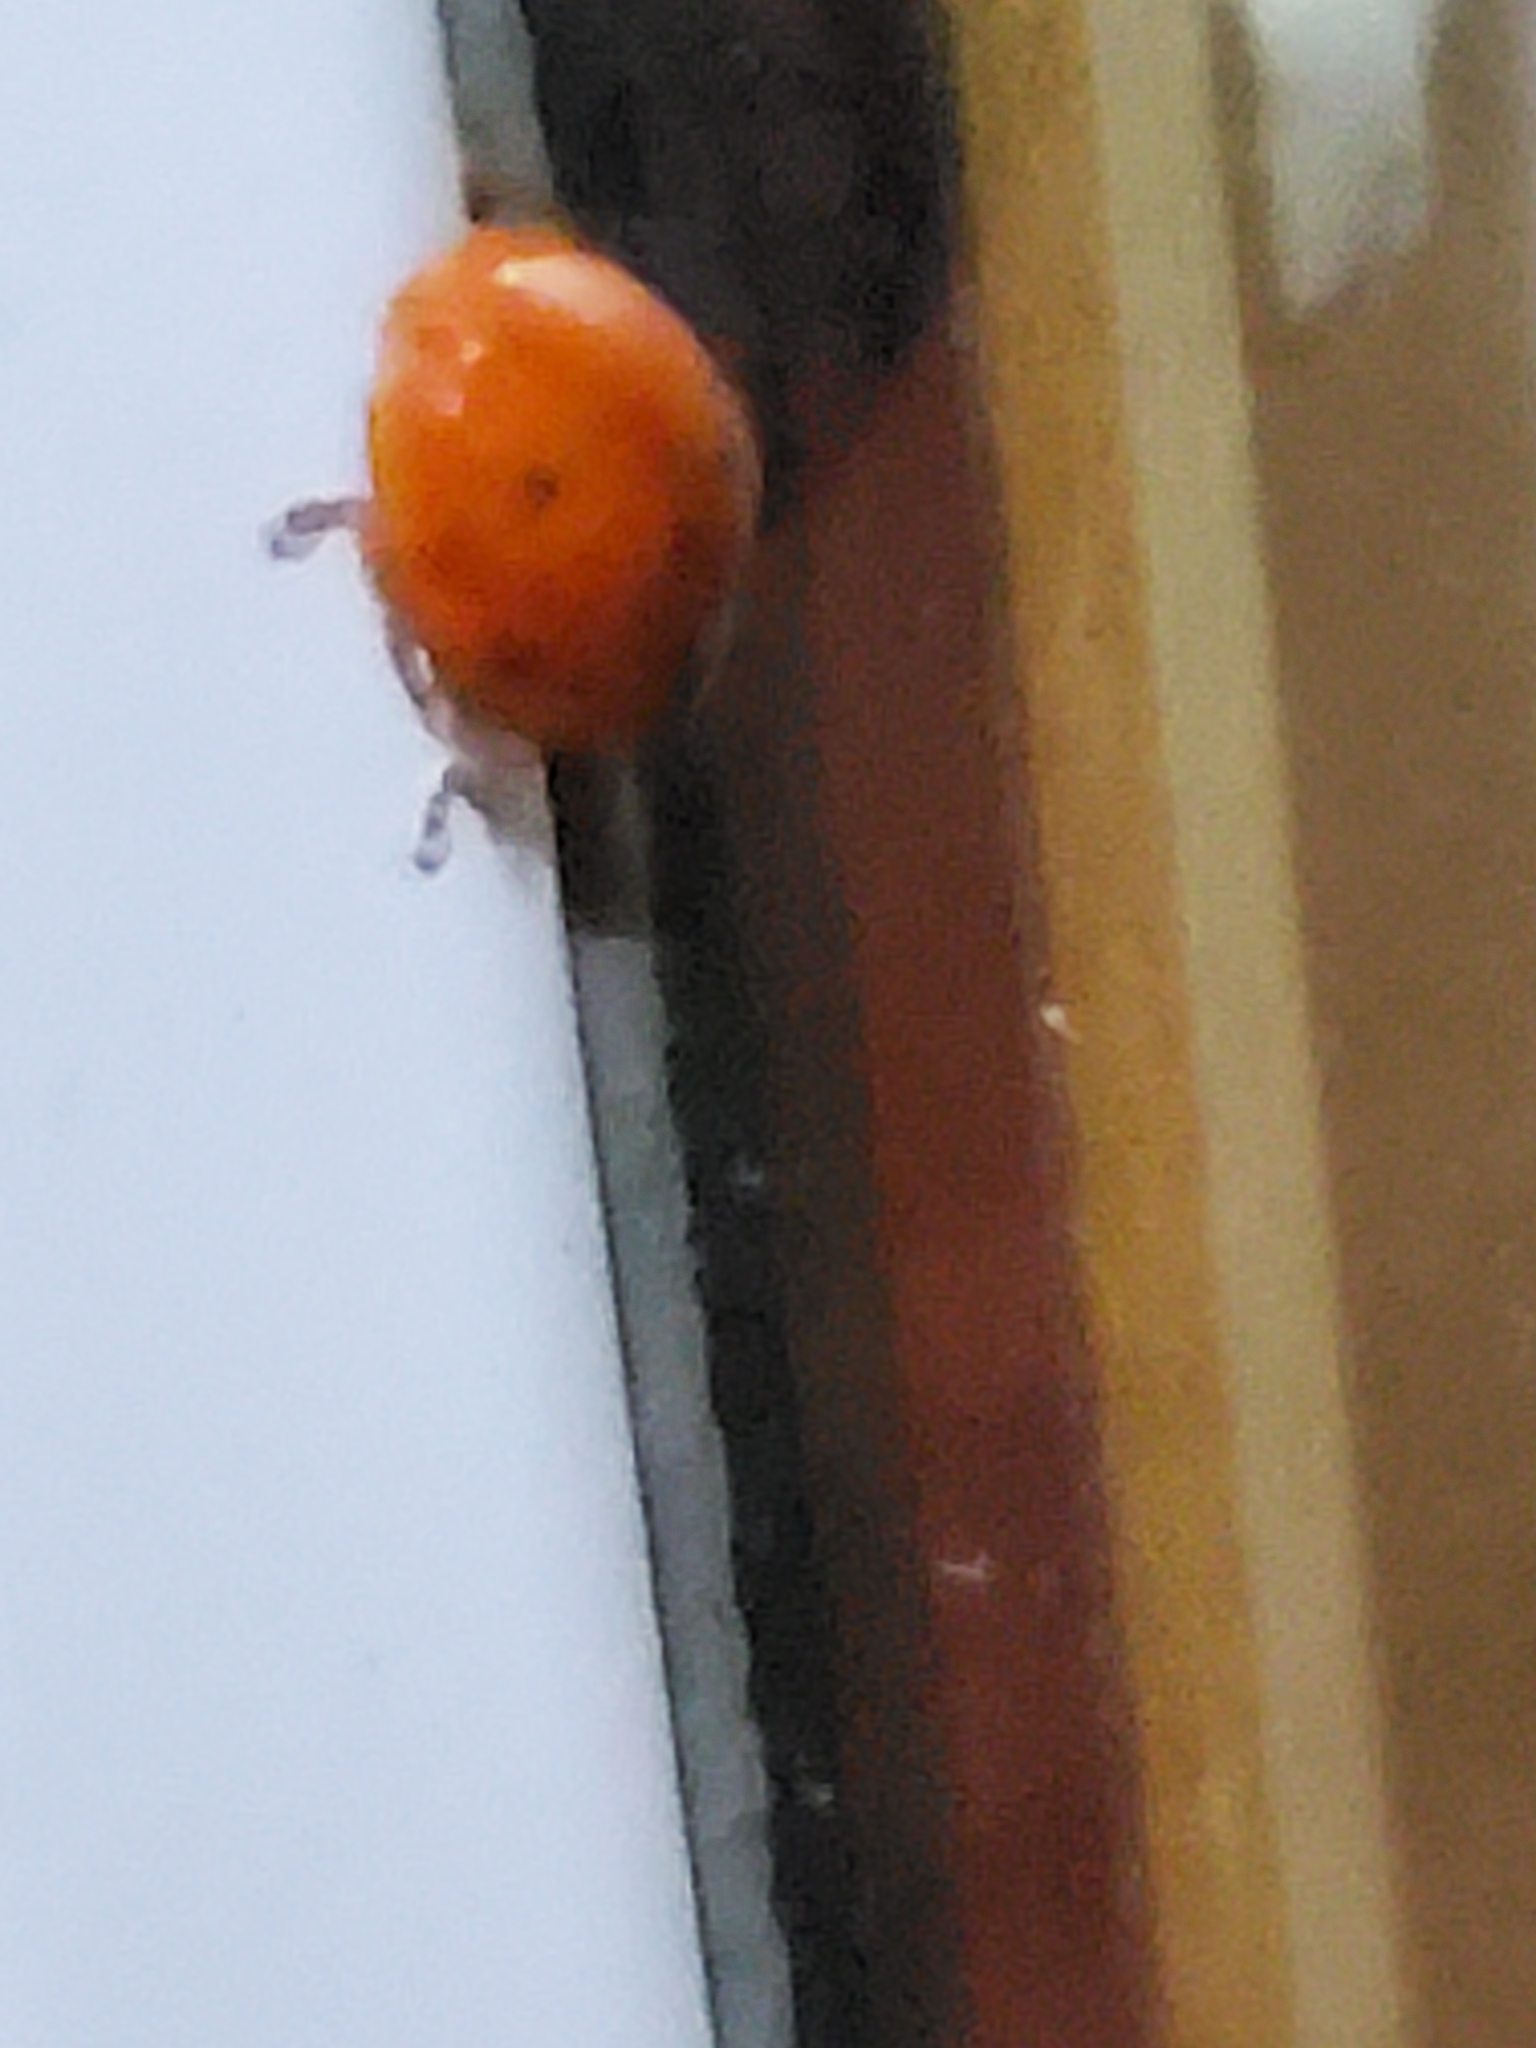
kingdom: Animalia
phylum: Arthropoda
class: Insecta
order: Coleoptera
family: Coccinellidae
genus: Harmonia
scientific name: Harmonia axyridis
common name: Harlequin ladybird
